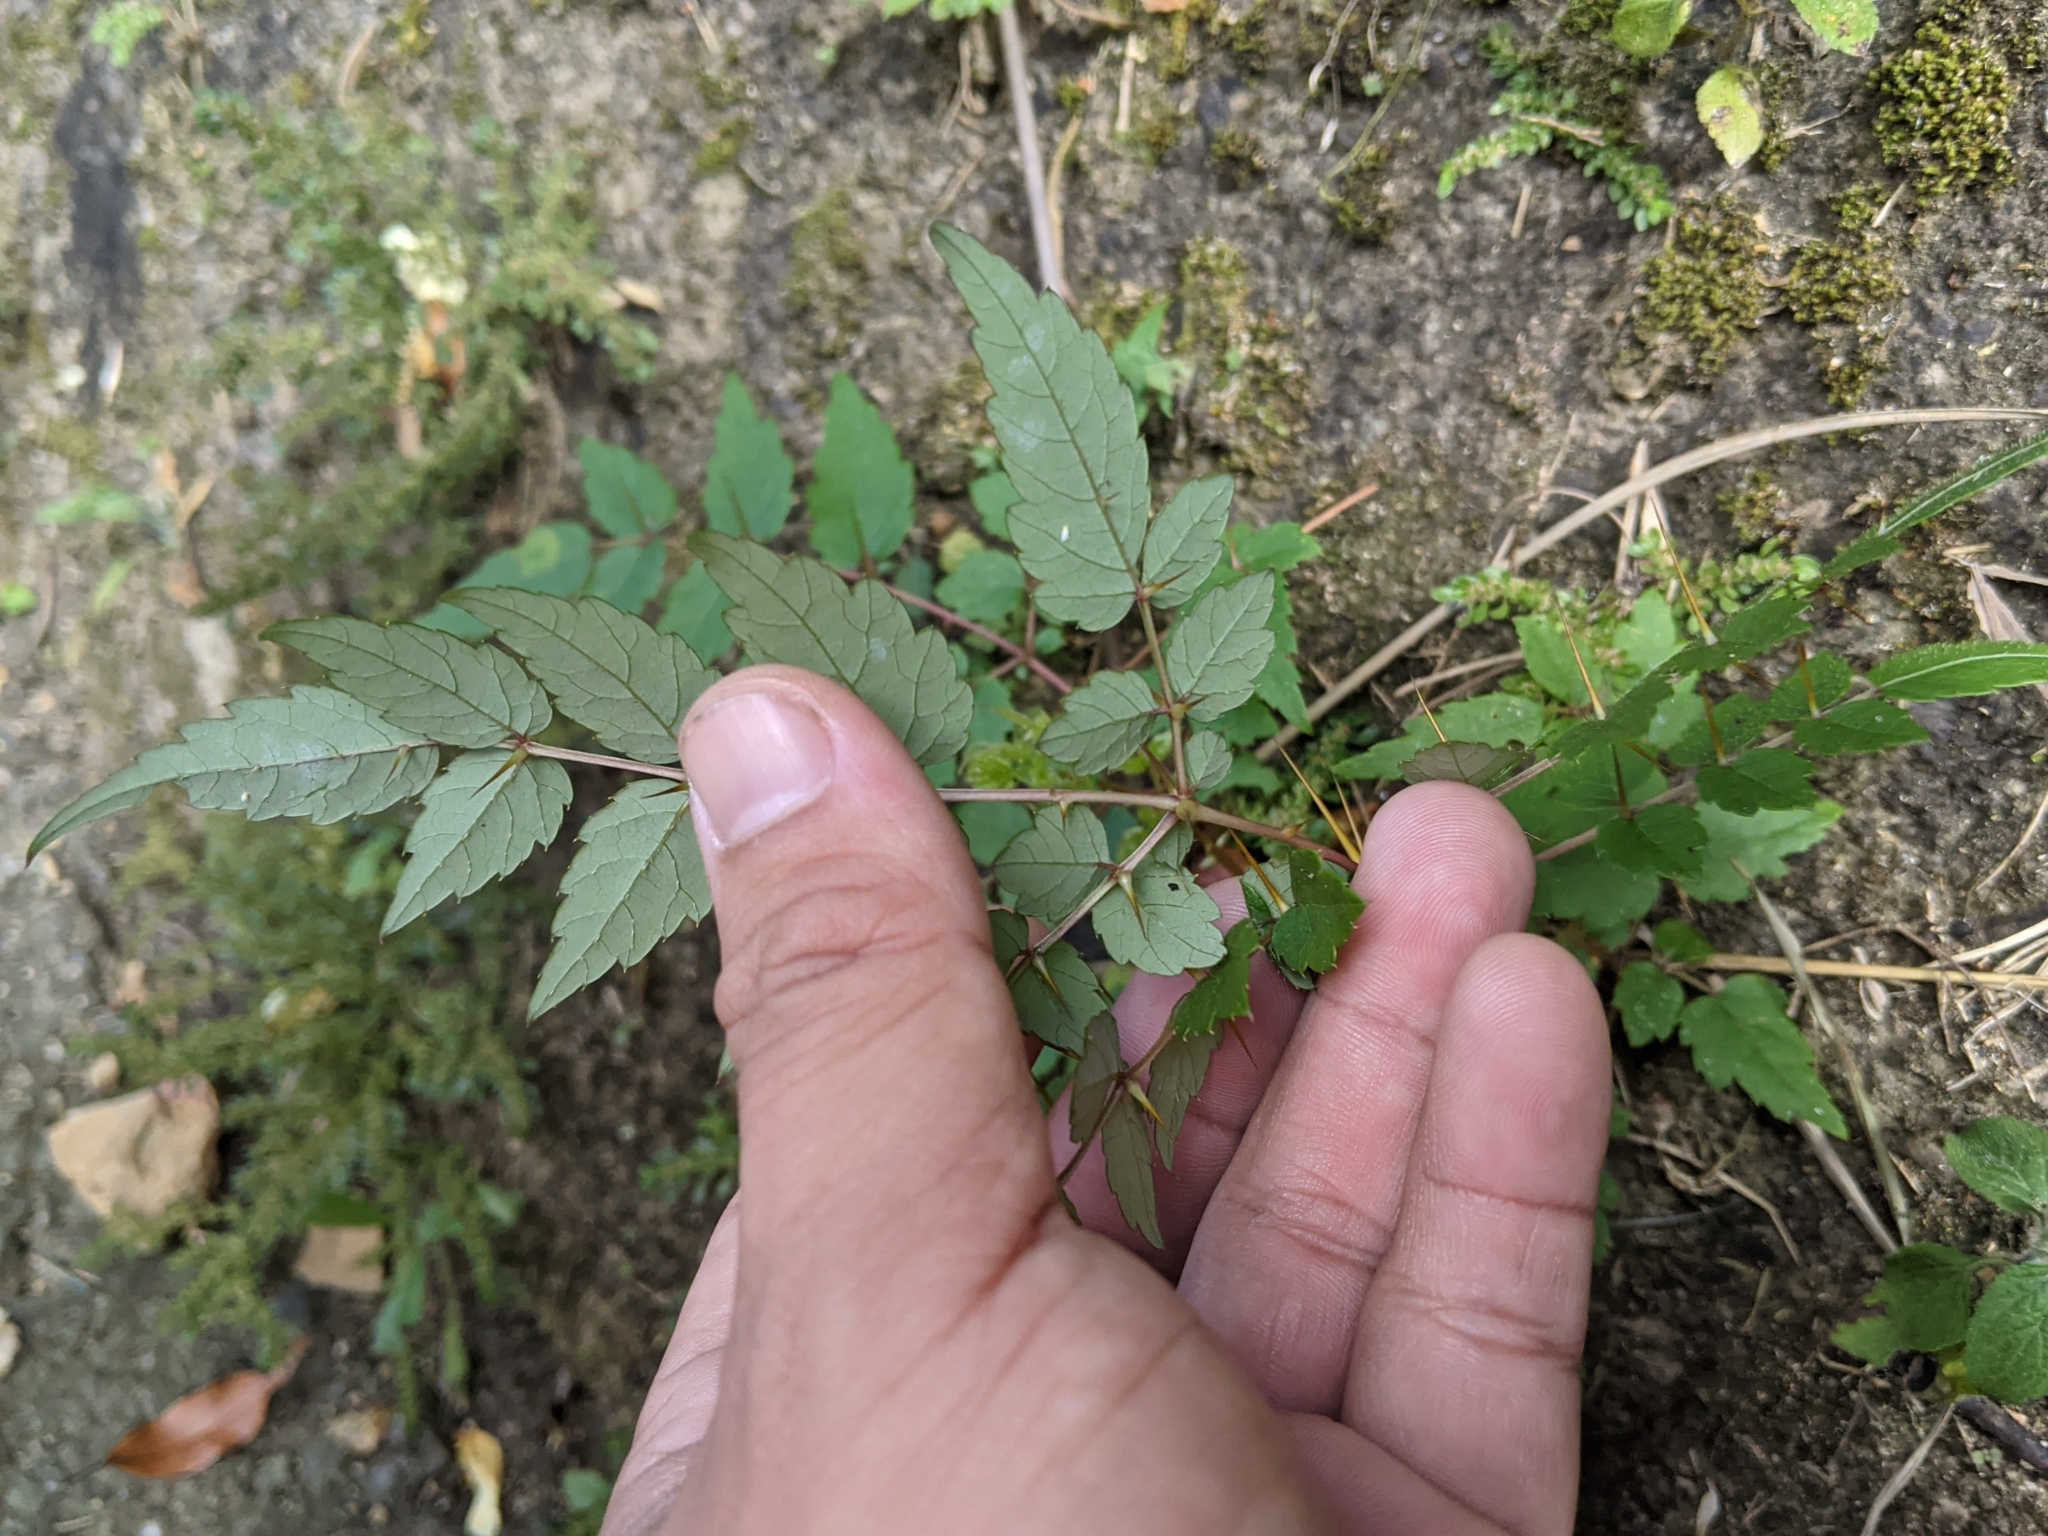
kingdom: Plantae
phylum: Tracheophyta
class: Magnoliopsida
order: Apiales
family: Araliaceae
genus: Aralia
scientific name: Aralia bipinnata
